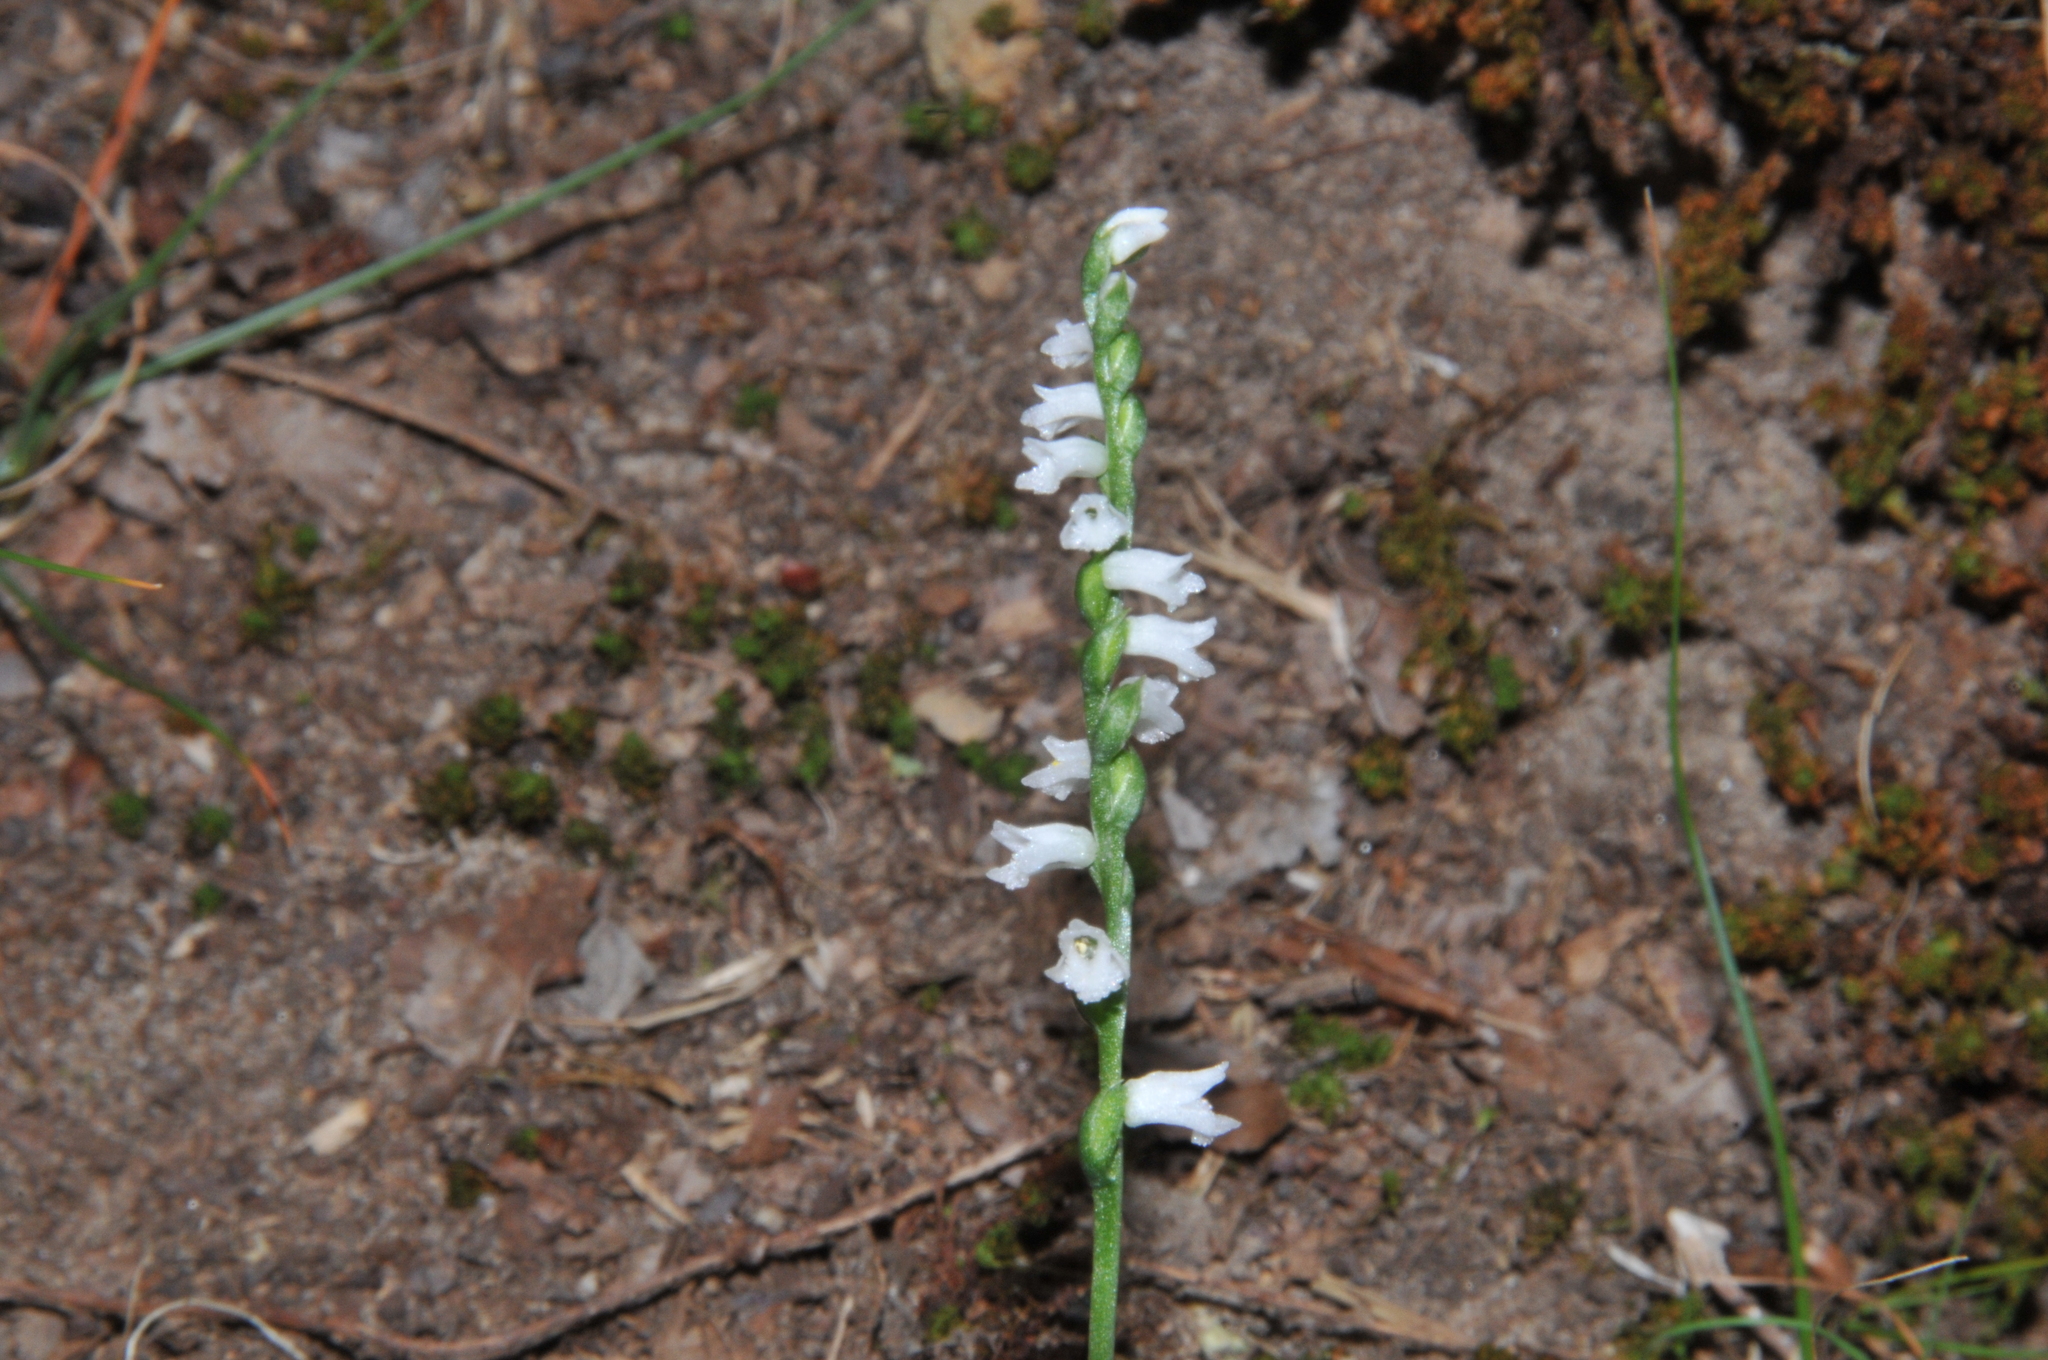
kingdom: Plantae
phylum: Tracheophyta
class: Liliopsida
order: Asparagales
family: Orchidaceae
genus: Spiranthes
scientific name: Spiranthes tuberosa
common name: Little ladies'-tresses
